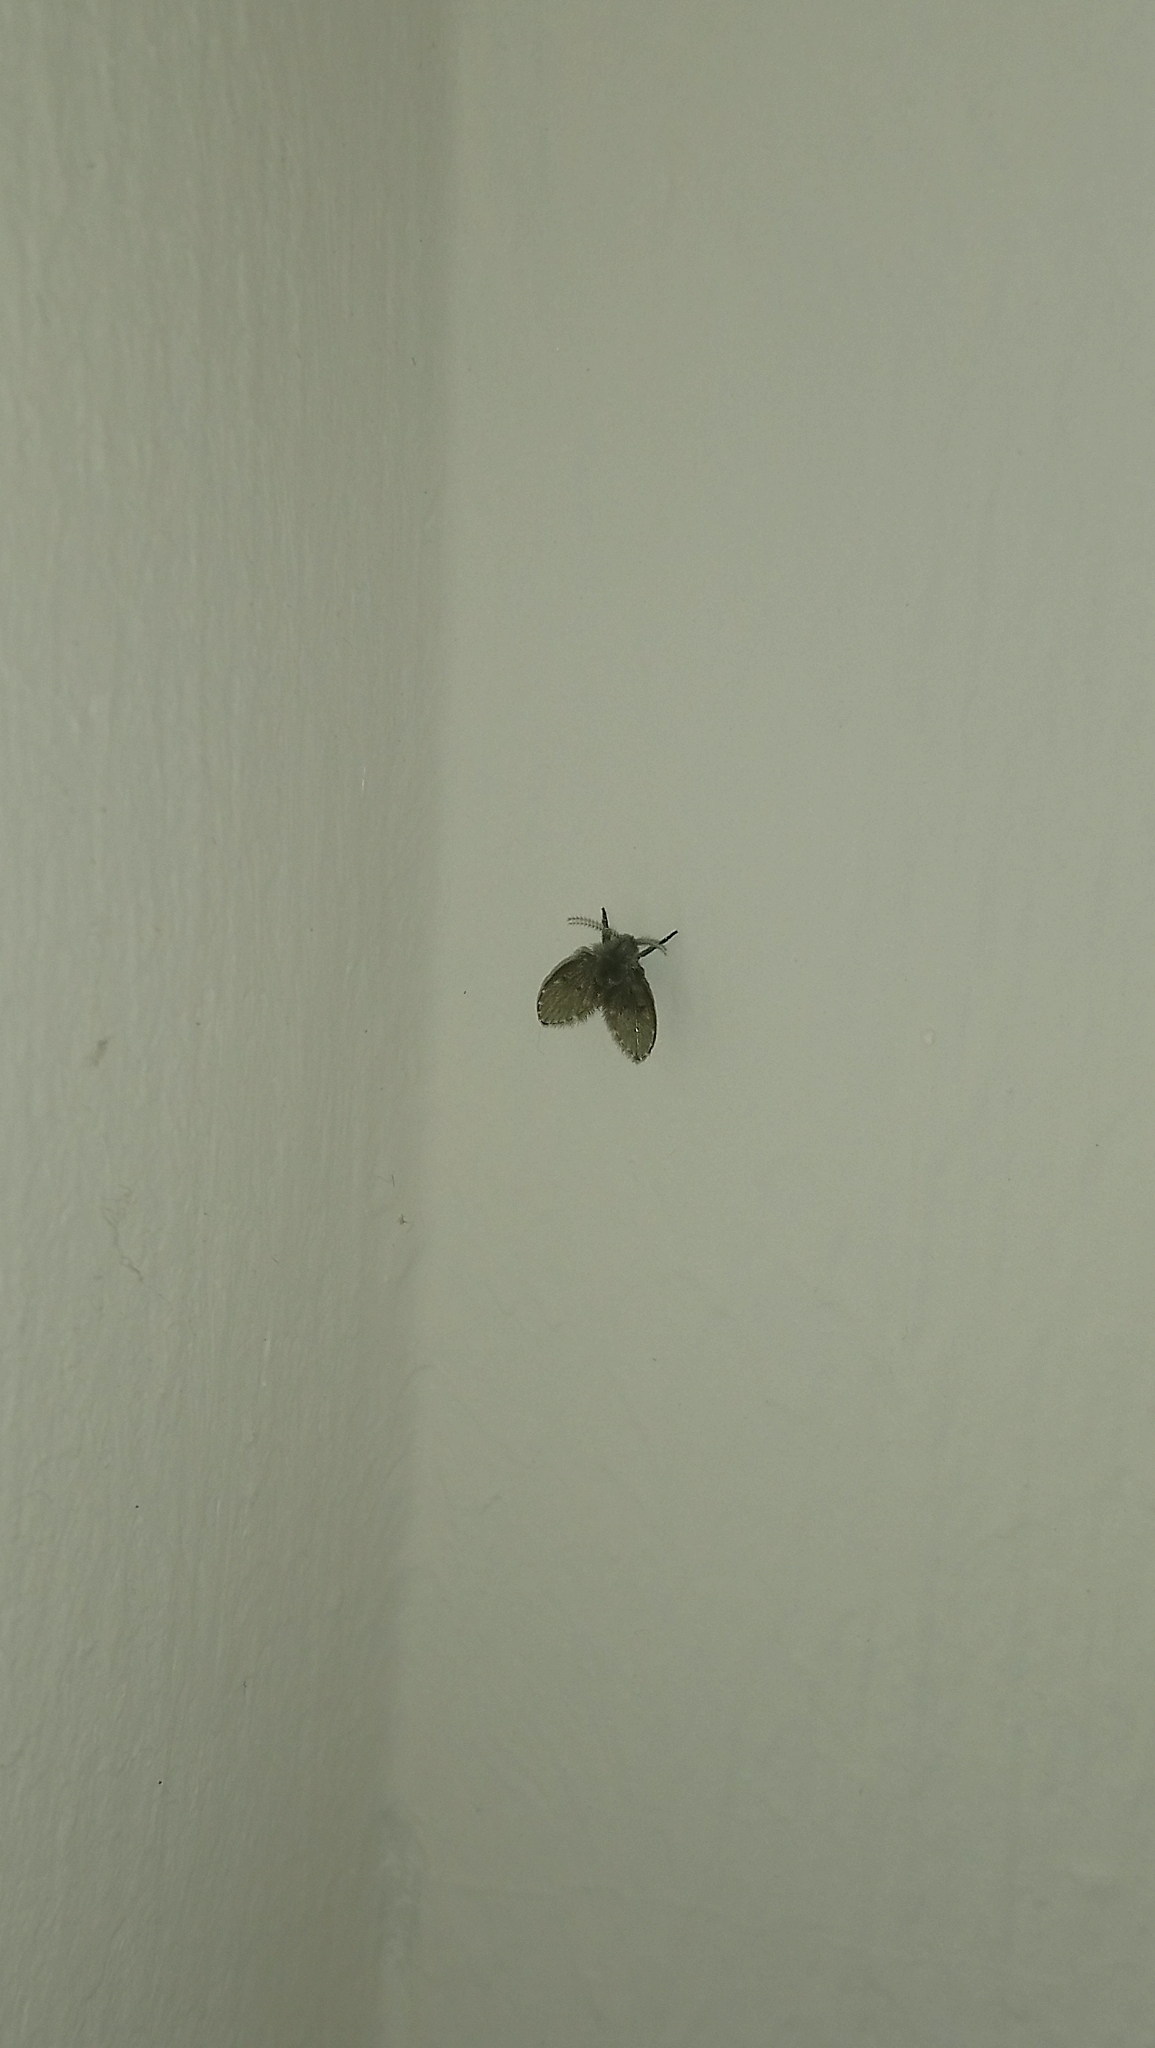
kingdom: Animalia
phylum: Arthropoda
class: Insecta
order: Diptera
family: Psychodidae
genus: Clogmia
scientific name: Clogmia albipunctatus
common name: White-spotted moth fly
